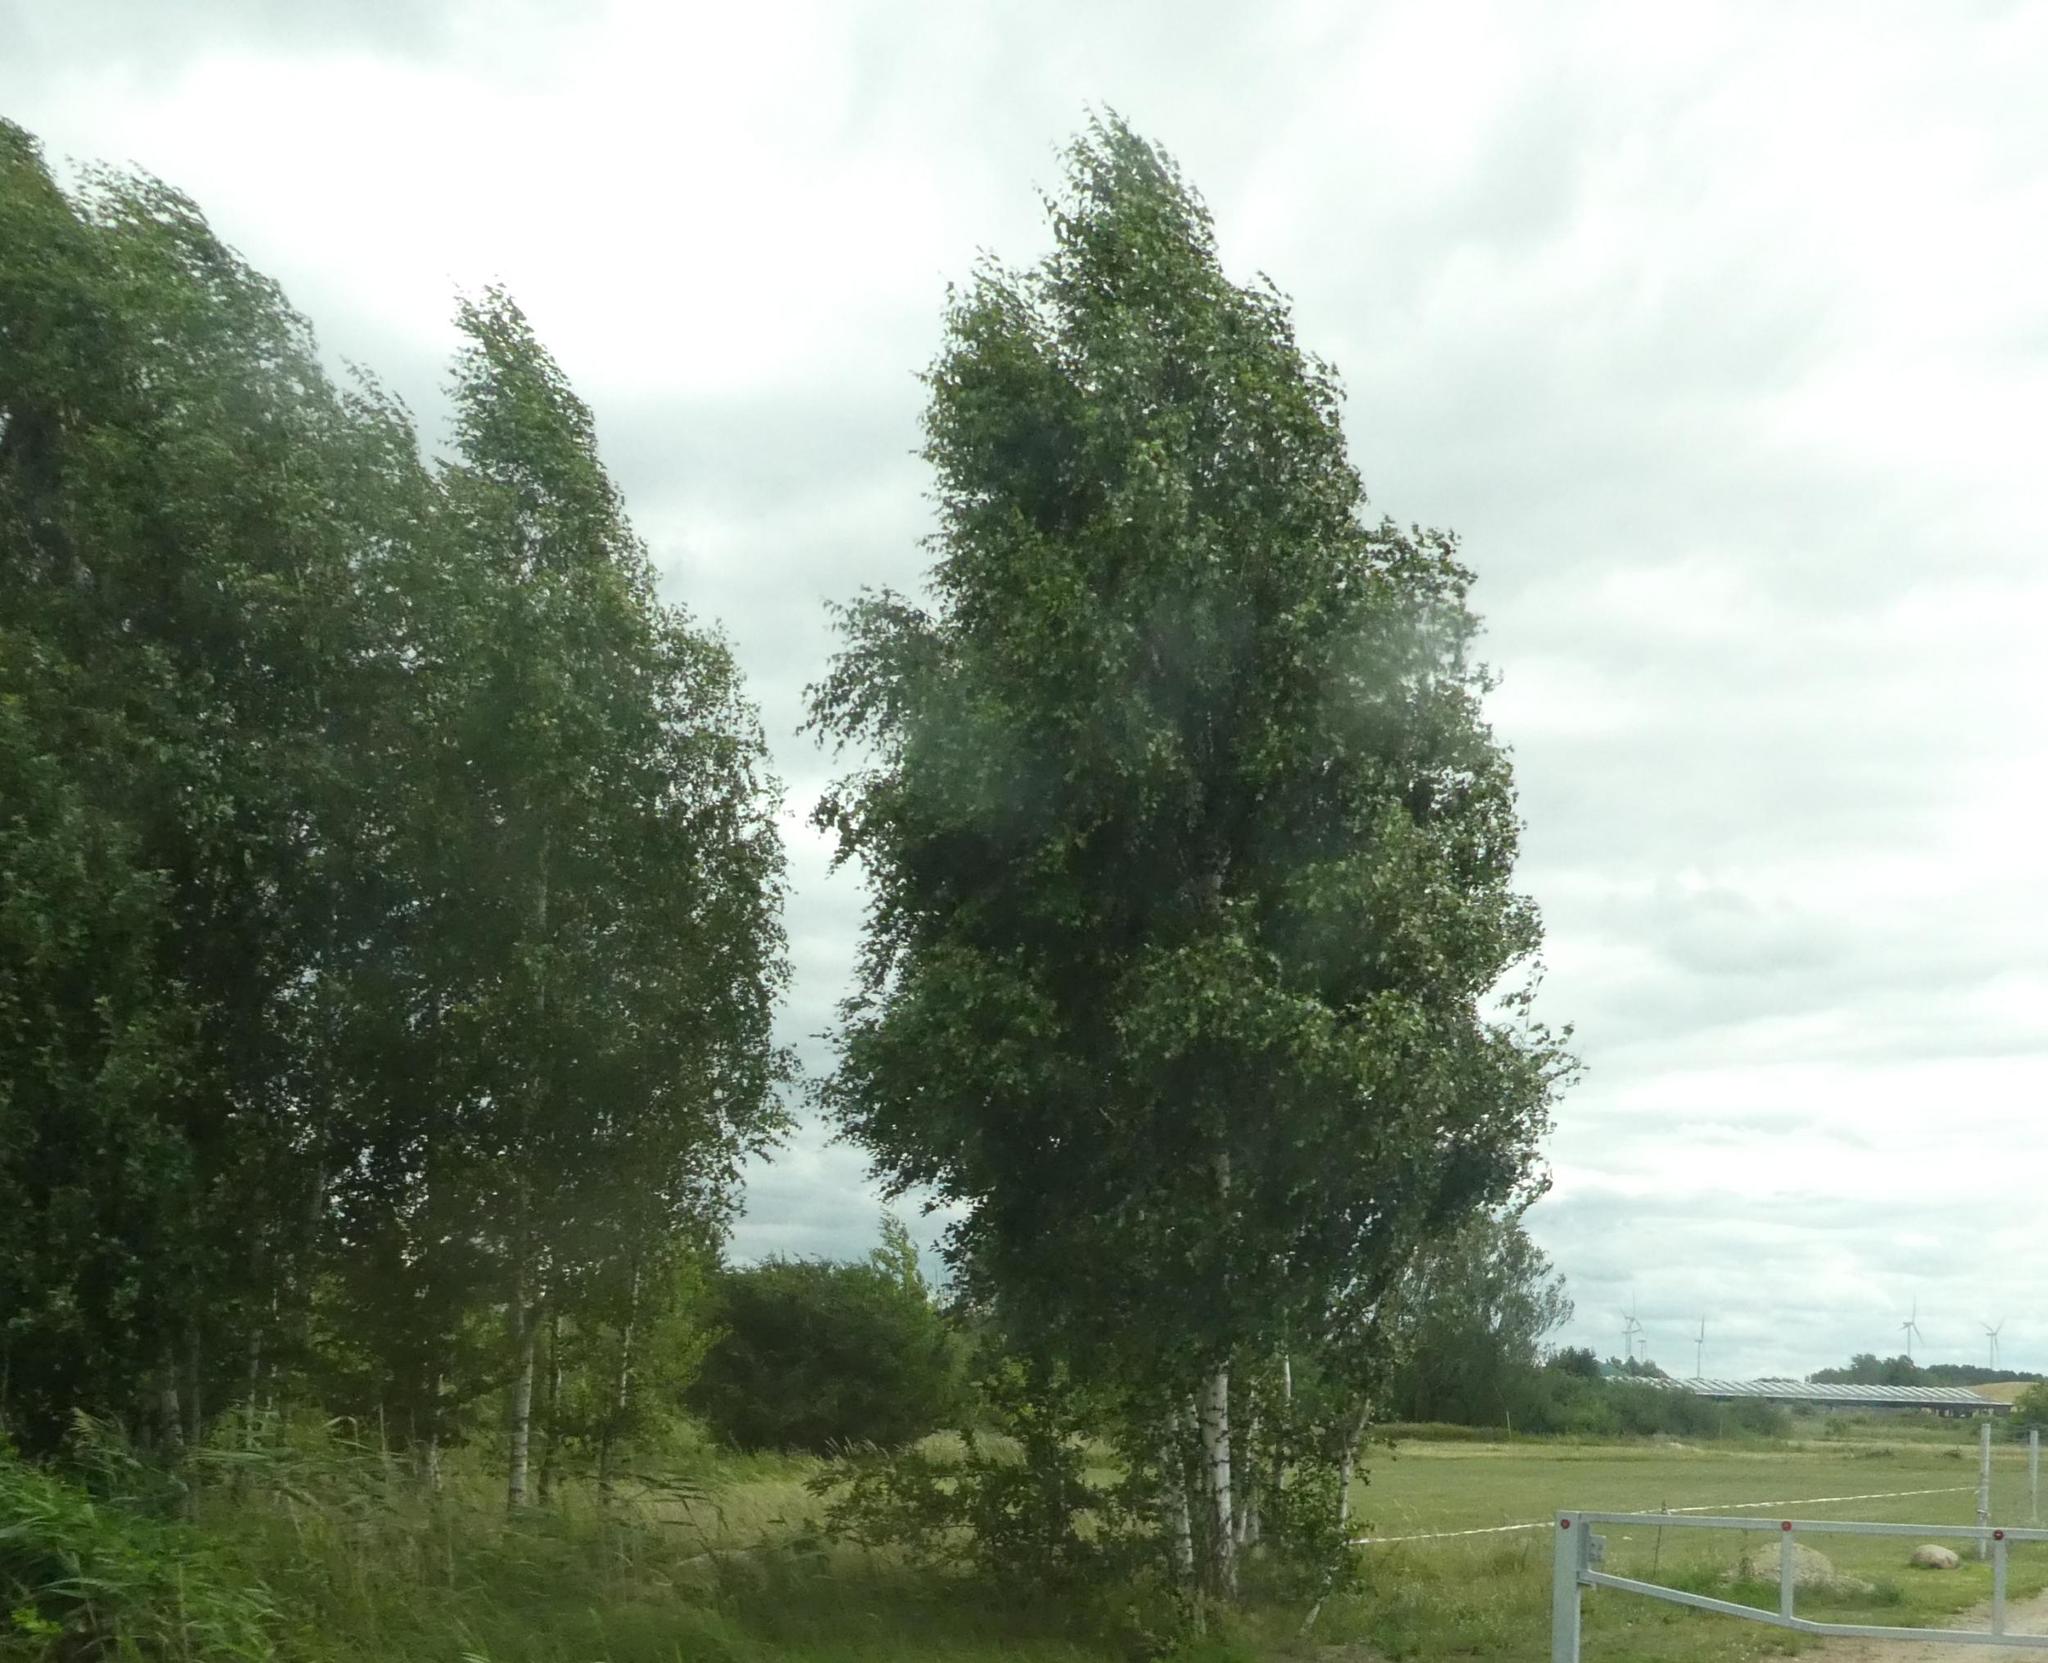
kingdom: Plantae
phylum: Tracheophyta
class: Magnoliopsida
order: Fagales
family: Betulaceae
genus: Betula
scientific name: Betula pendula
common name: Silver birch
